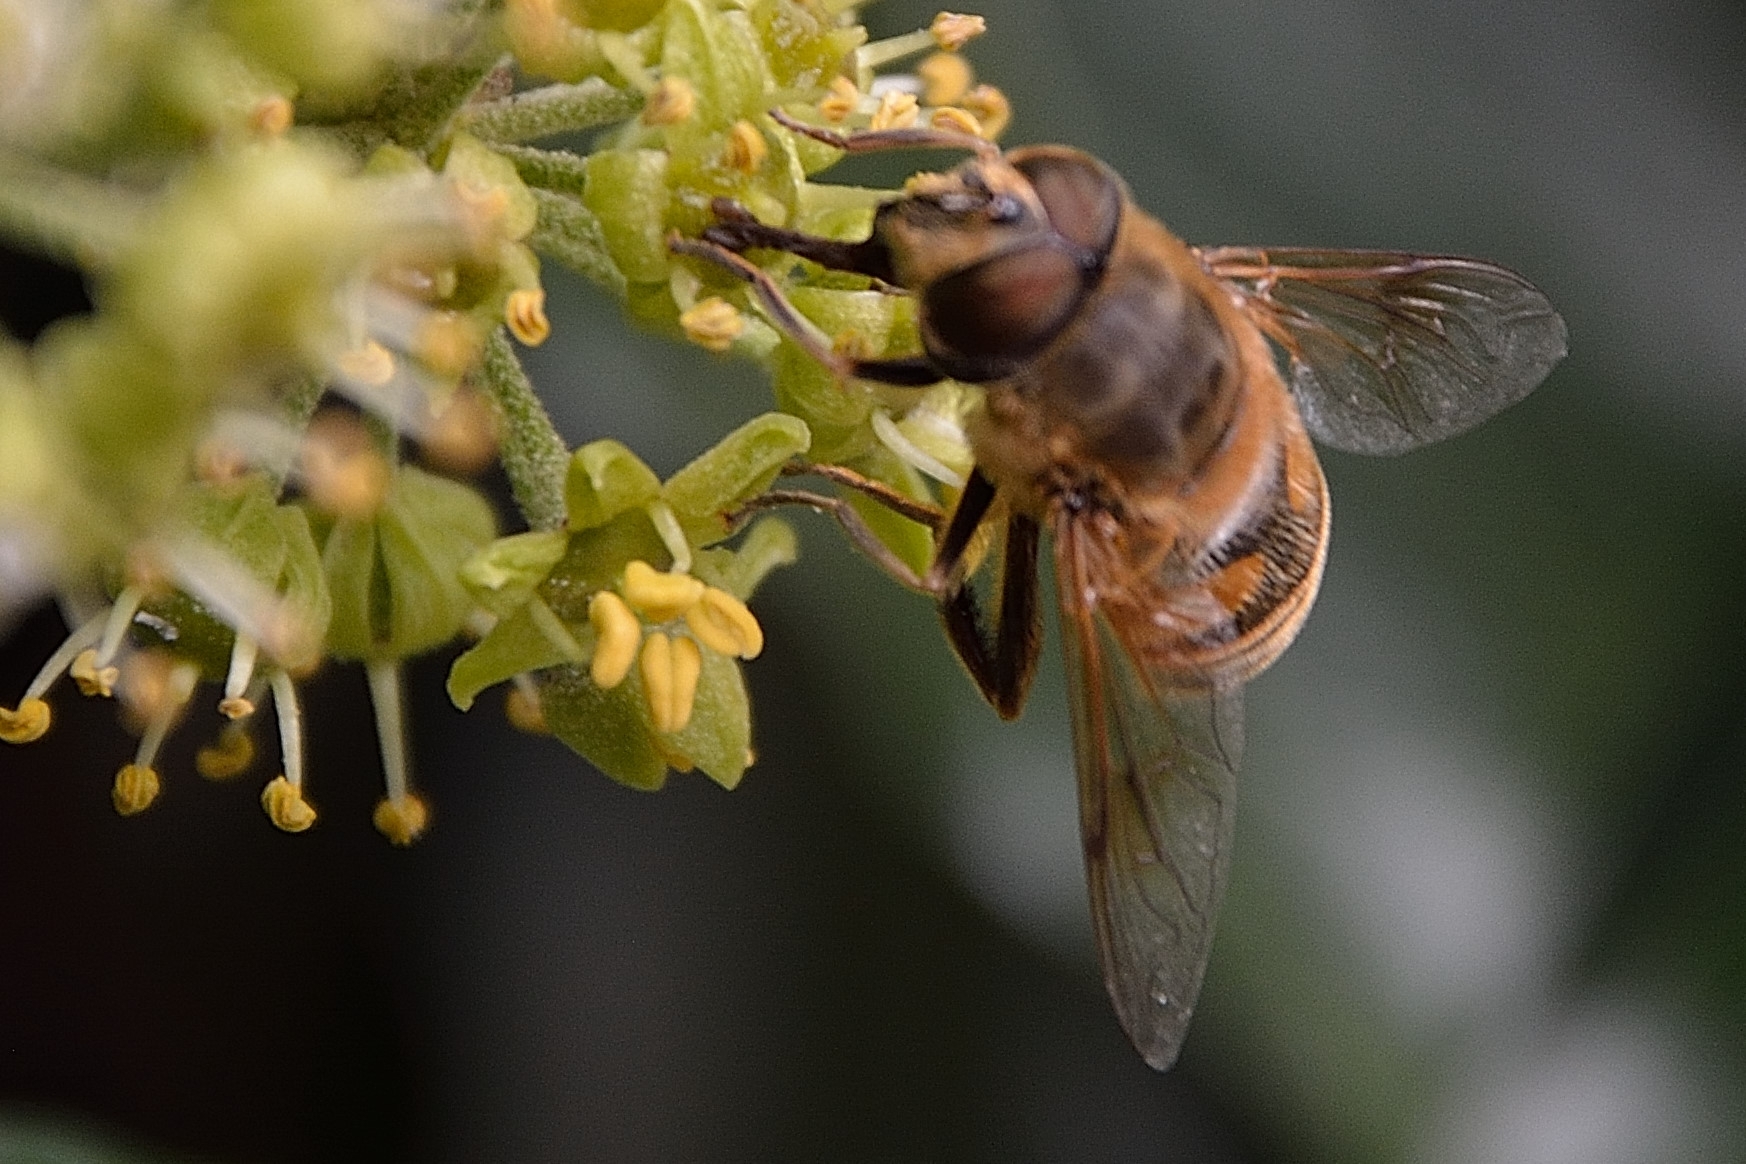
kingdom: Animalia
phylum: Arthropoda
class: Insecta
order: Diptera
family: Syrphidae
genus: Eristalis
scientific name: Eristalis tenax
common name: Drone fly
